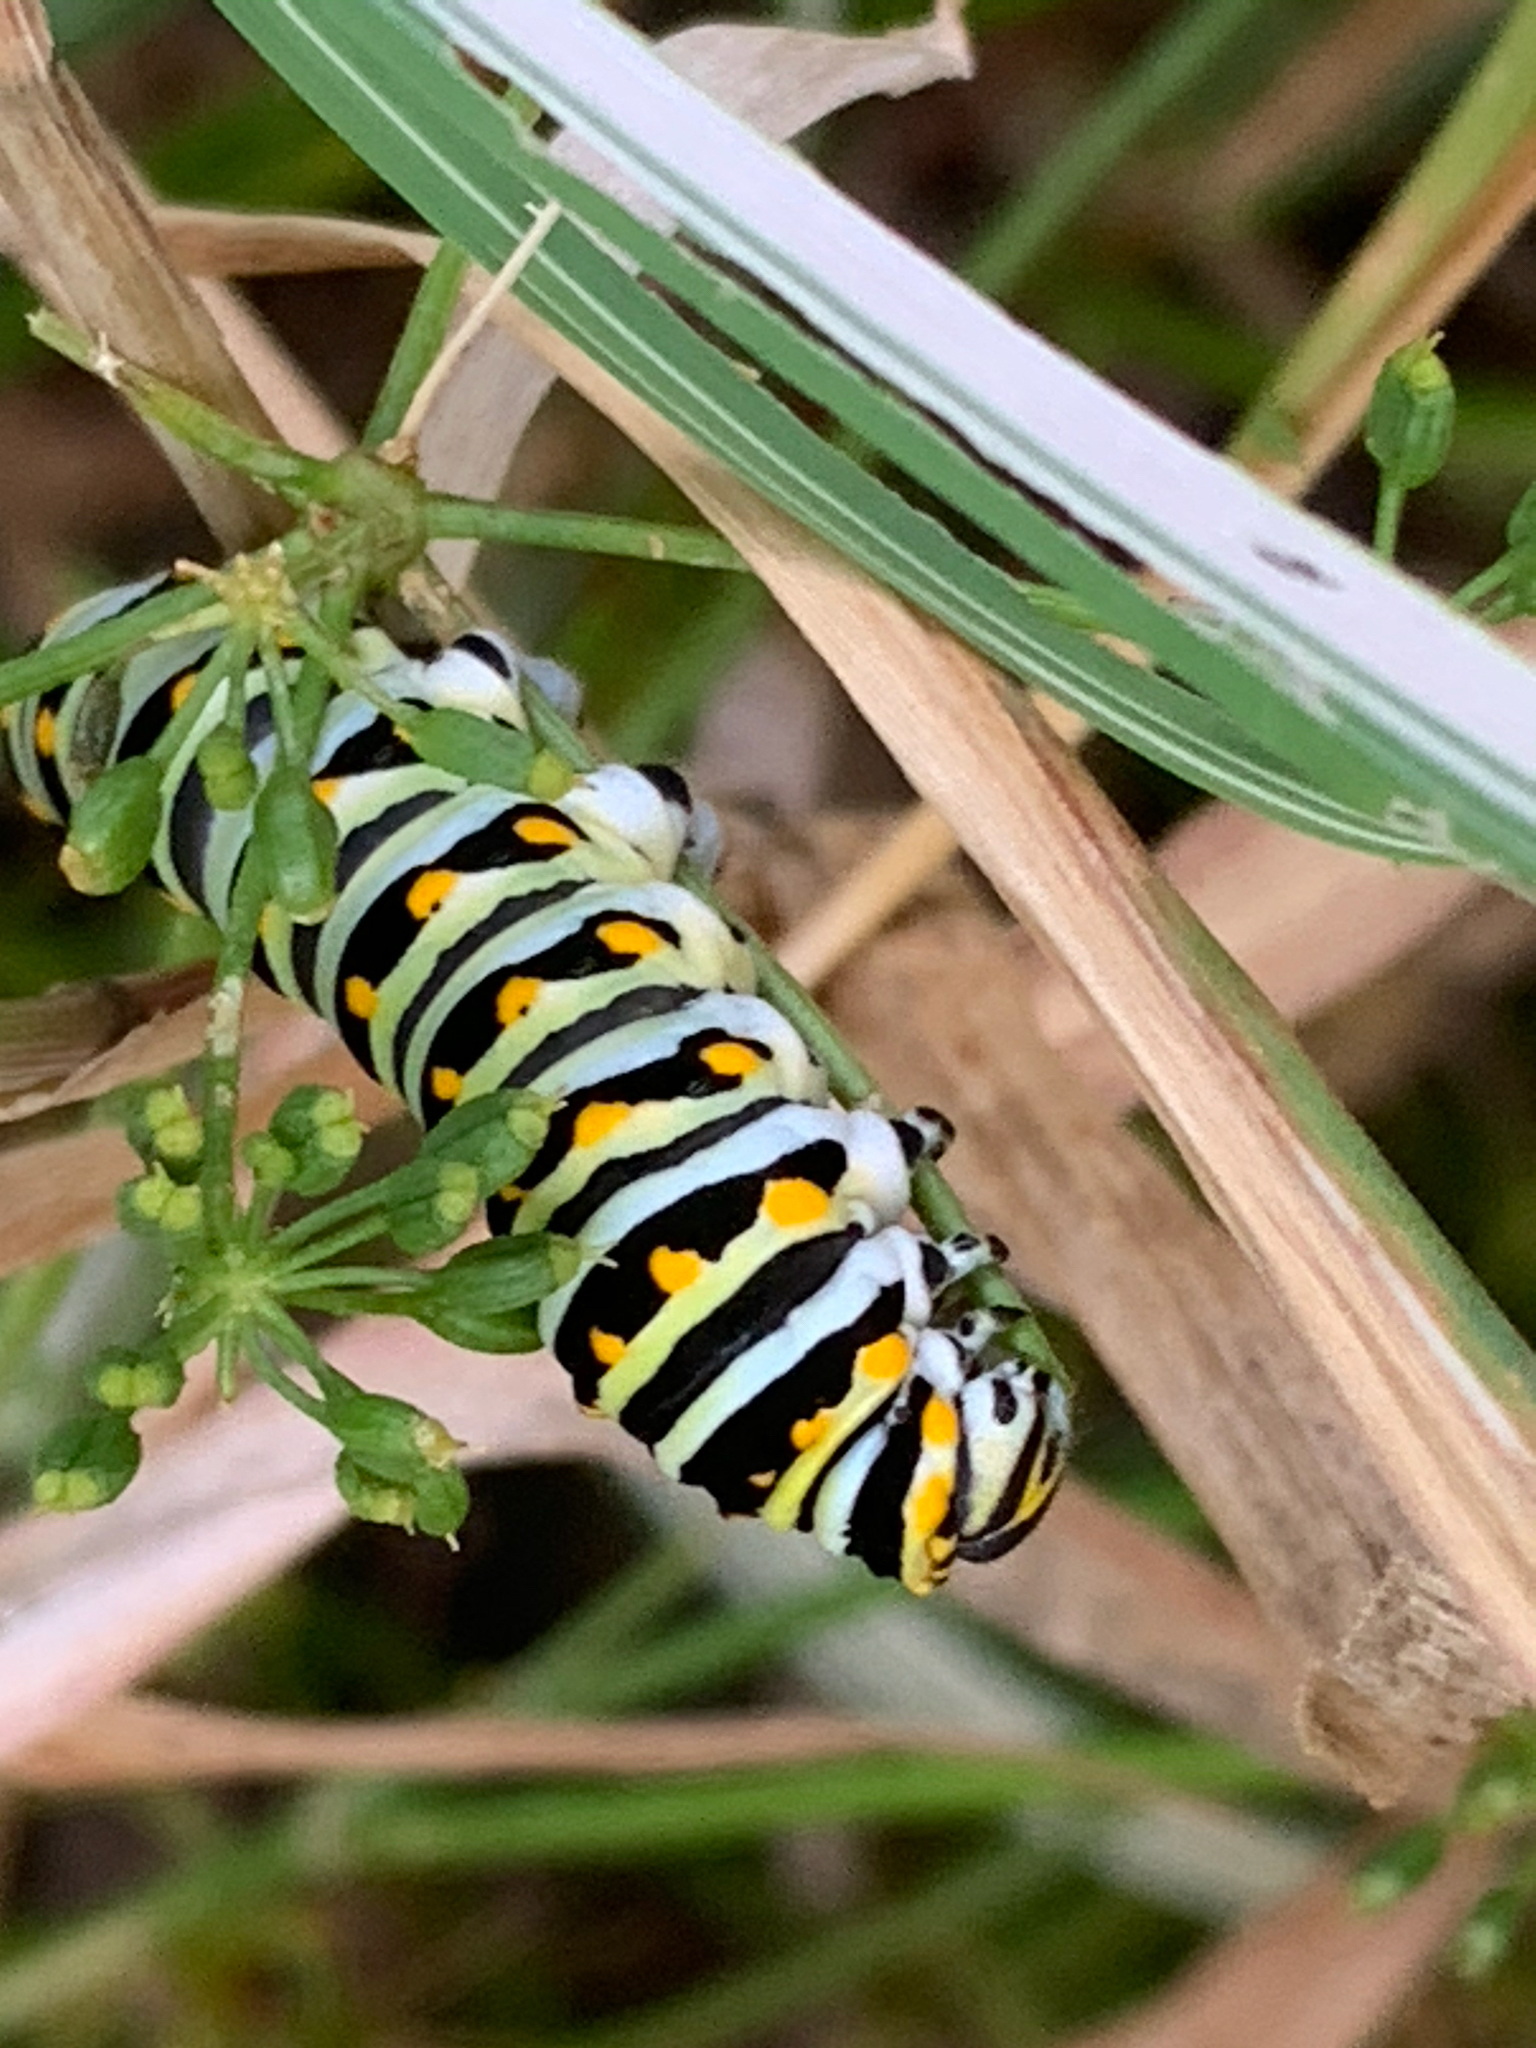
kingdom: Animalia
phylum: Arthropoda
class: Insecta
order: Lepidoptera
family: Papilionidae
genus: Papilio
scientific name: Papilio polyxenes
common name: Black swallowtail
